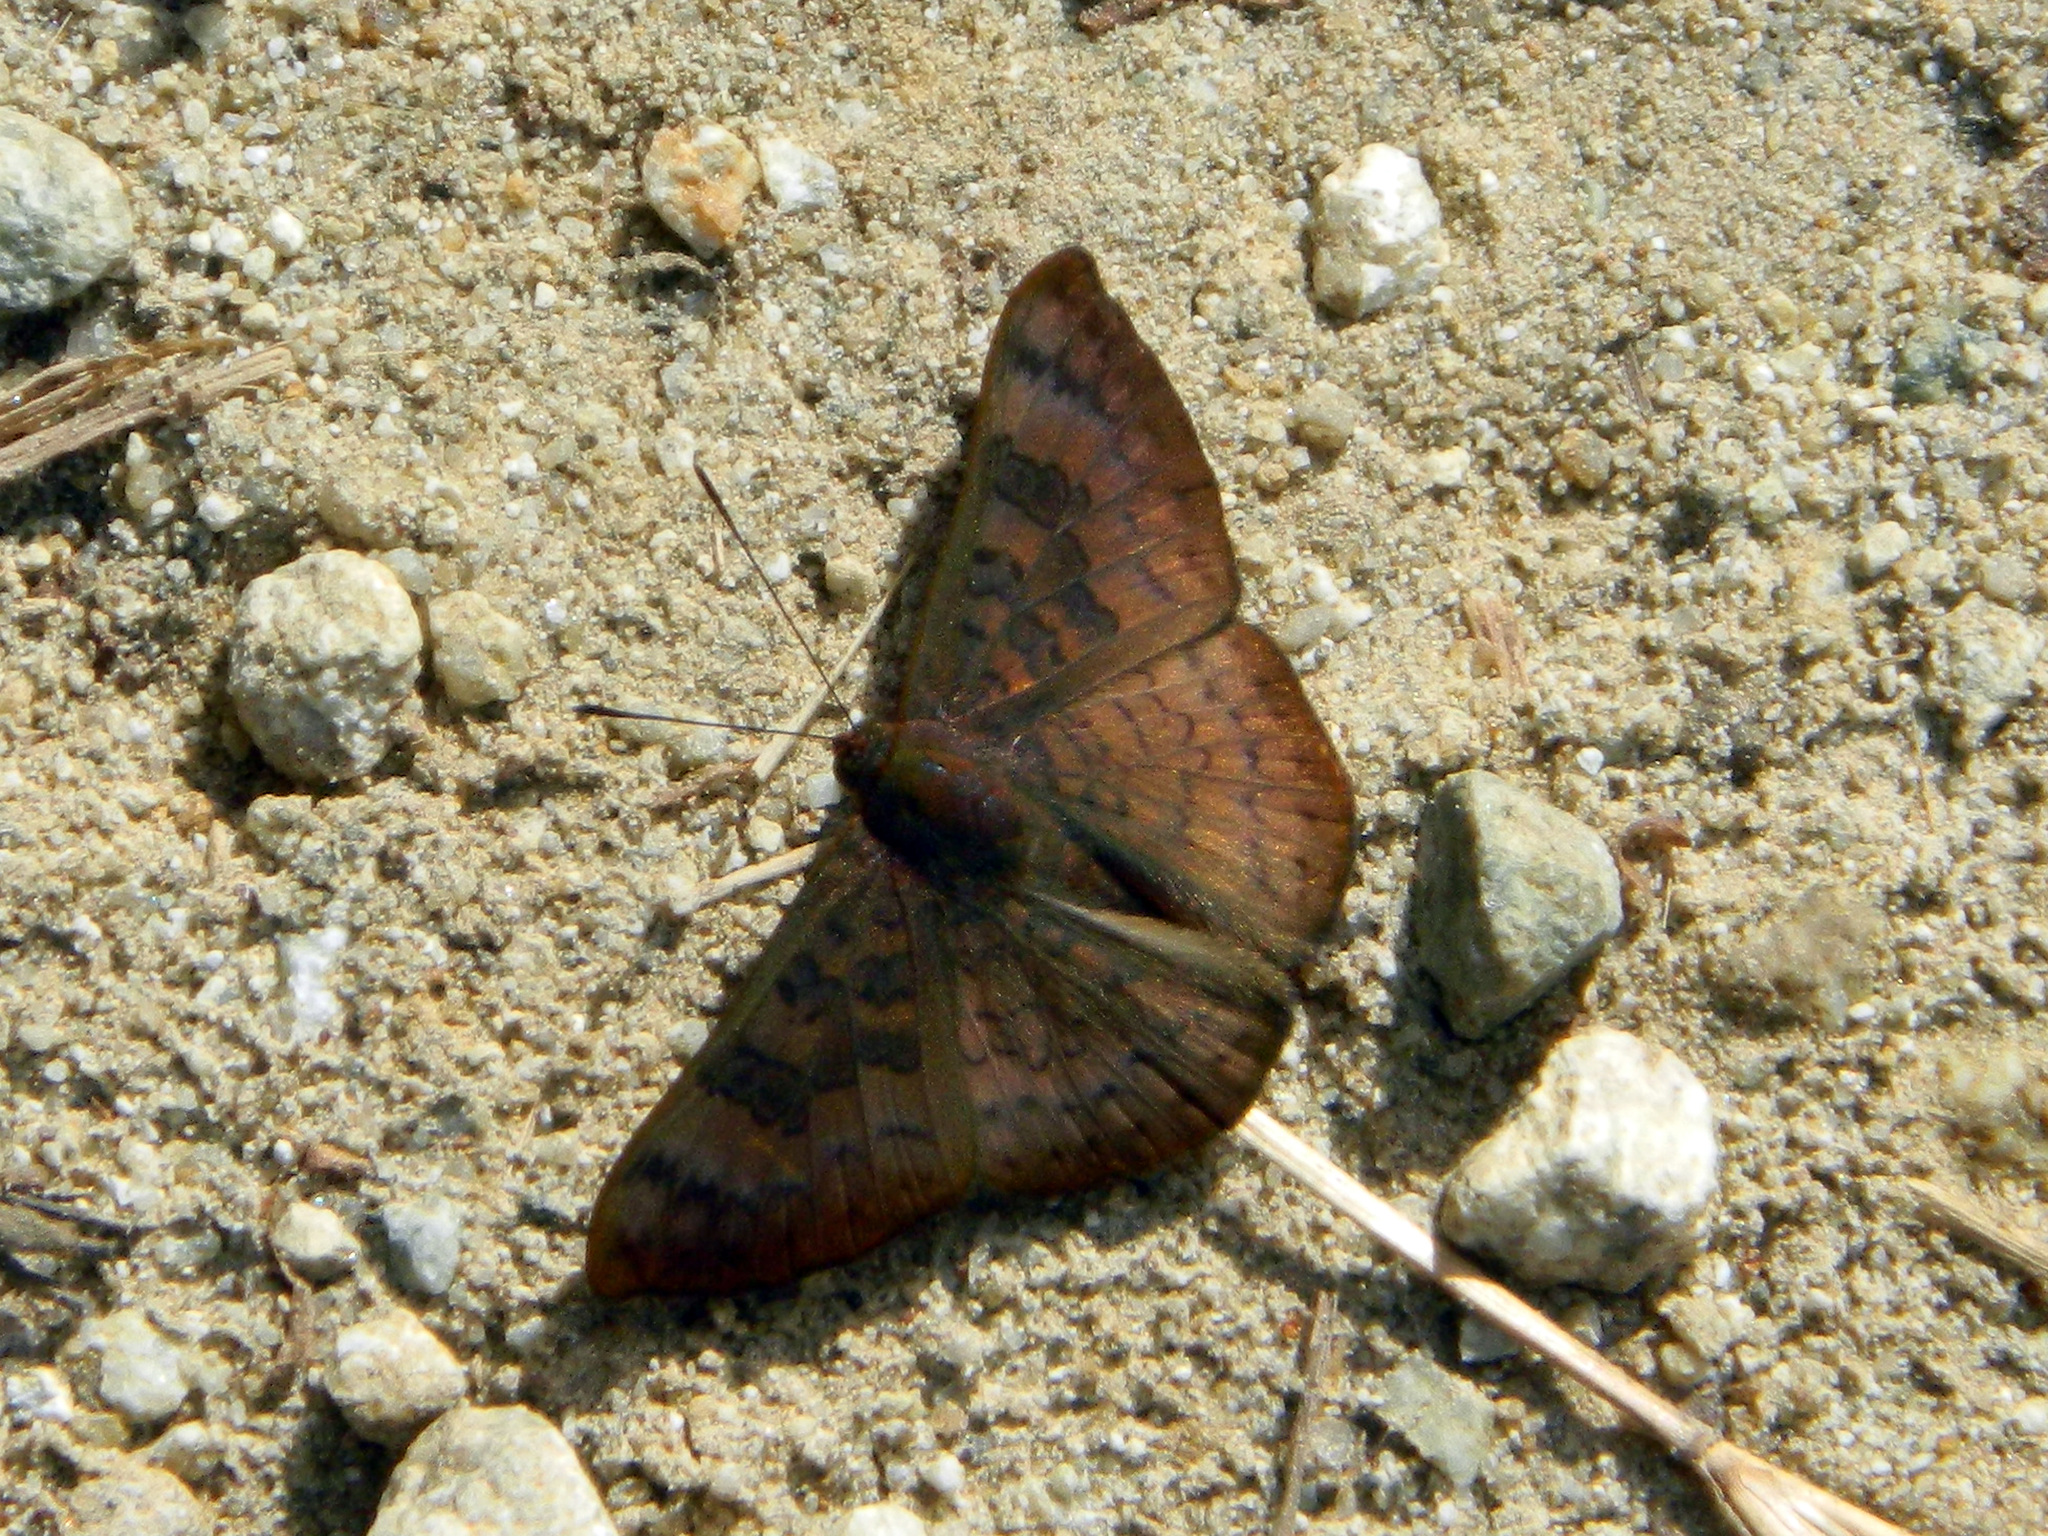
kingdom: Animalia
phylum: Arthropoda
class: Insecta
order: Lepidoptera
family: Lycaenidae
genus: Emesis
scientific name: Emesis tegula
